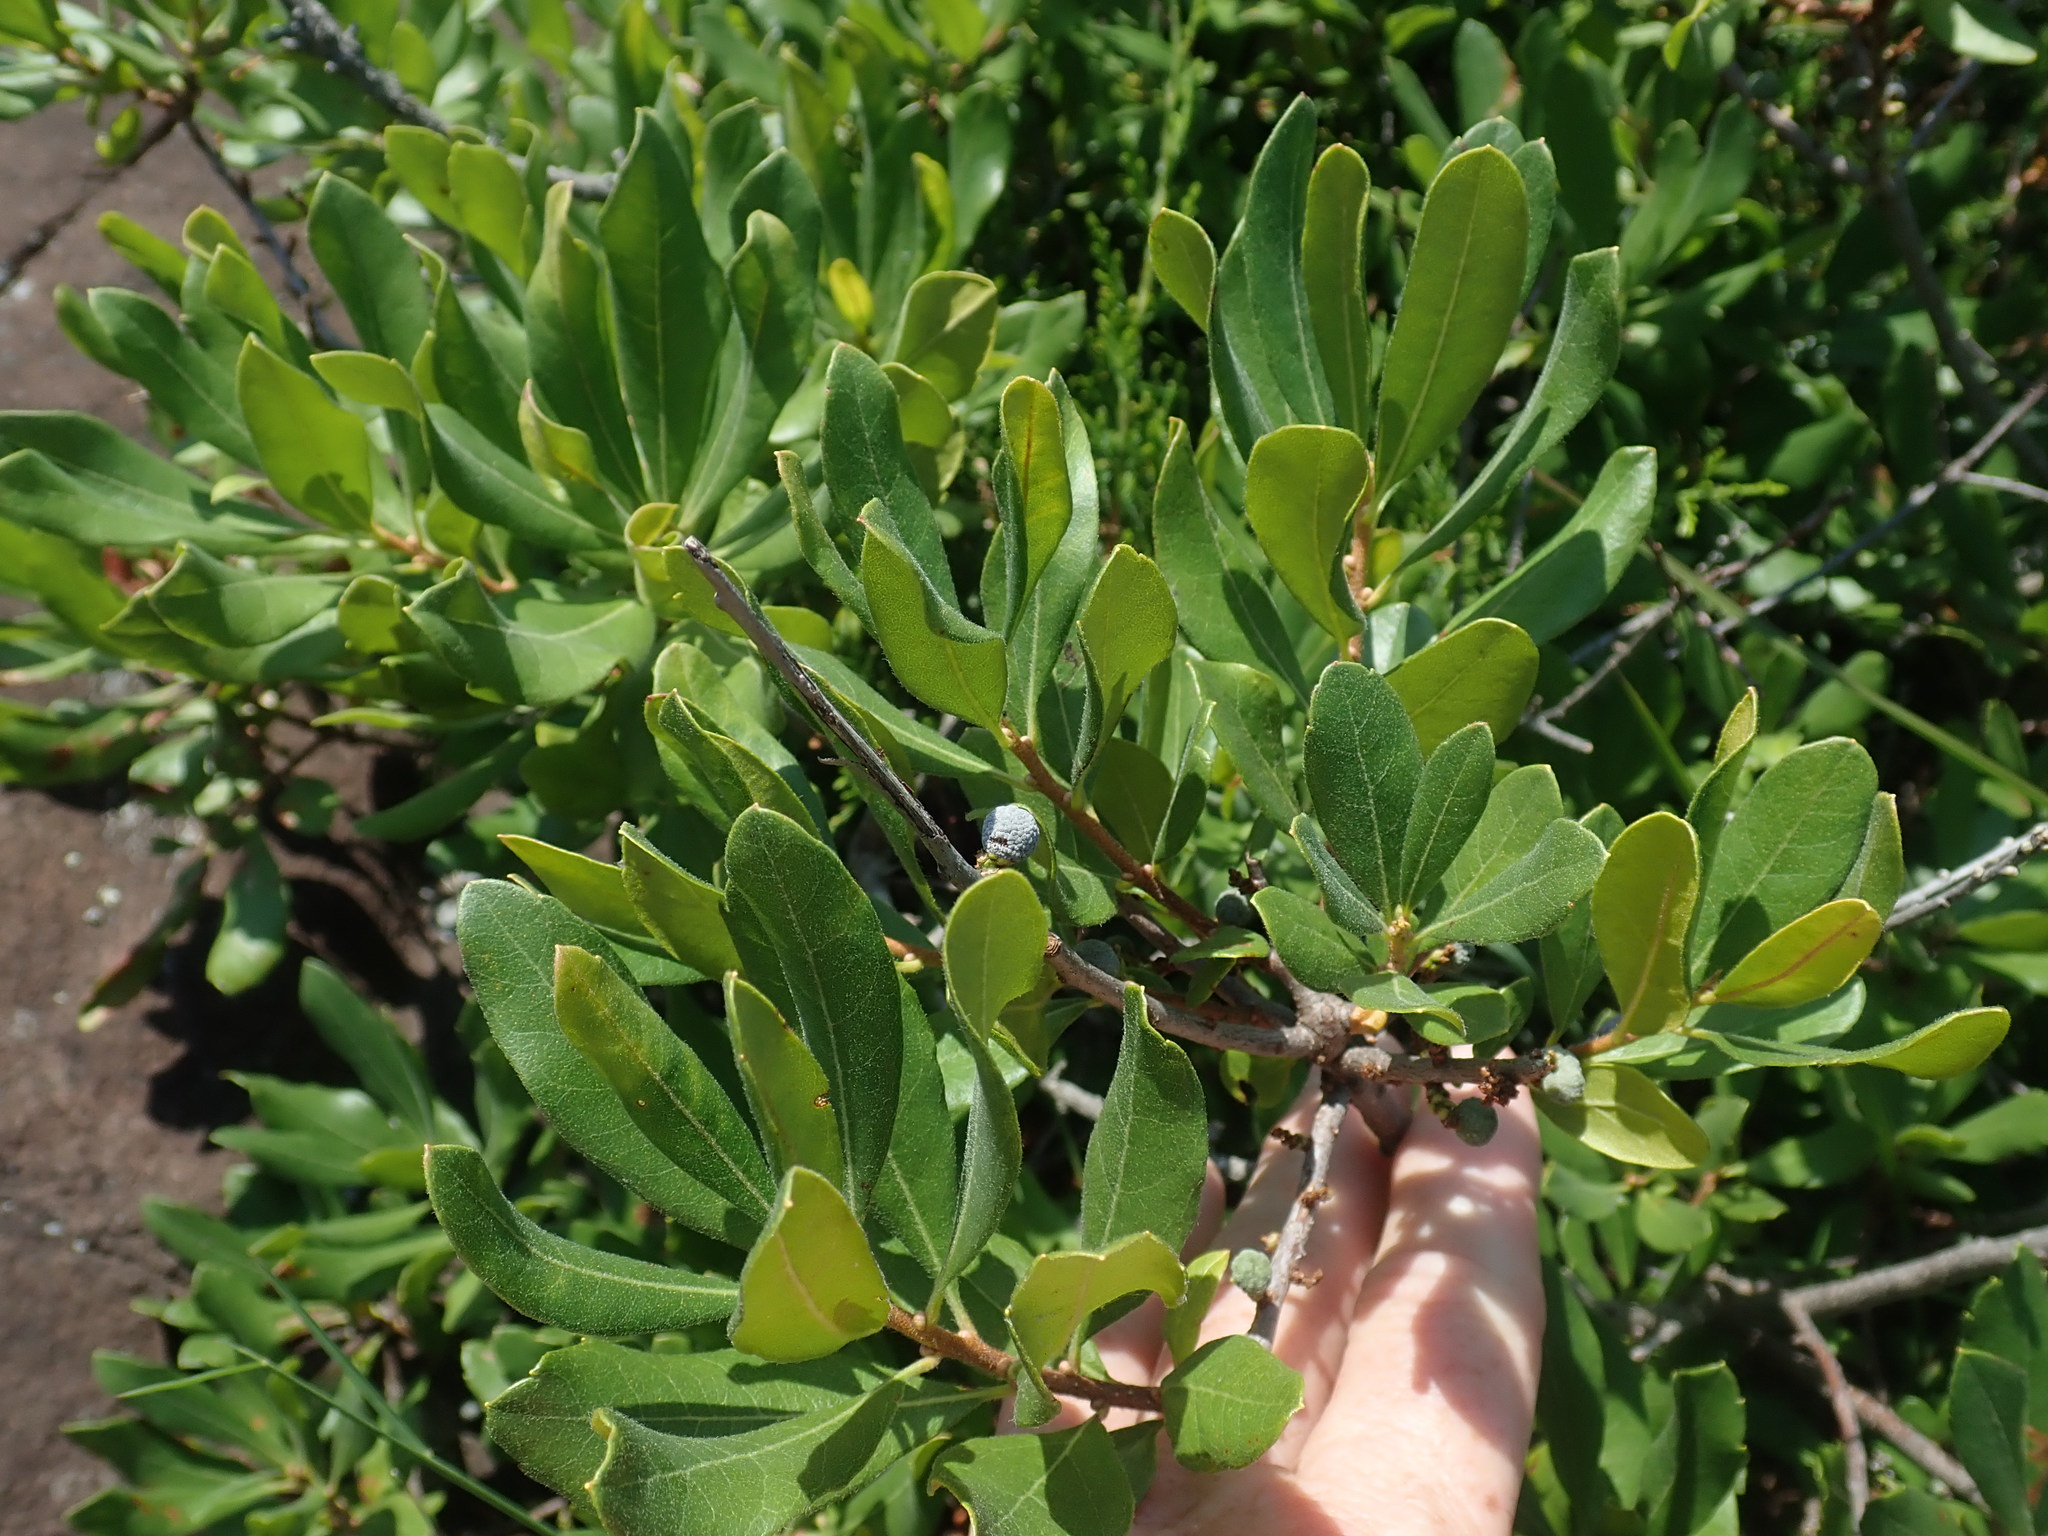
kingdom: Plantae
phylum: Tracheophyta
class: Magnoliopsida
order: Fagales
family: Myricaceae
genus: Morella
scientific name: Morella pensylvanica
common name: Northern bayberry
